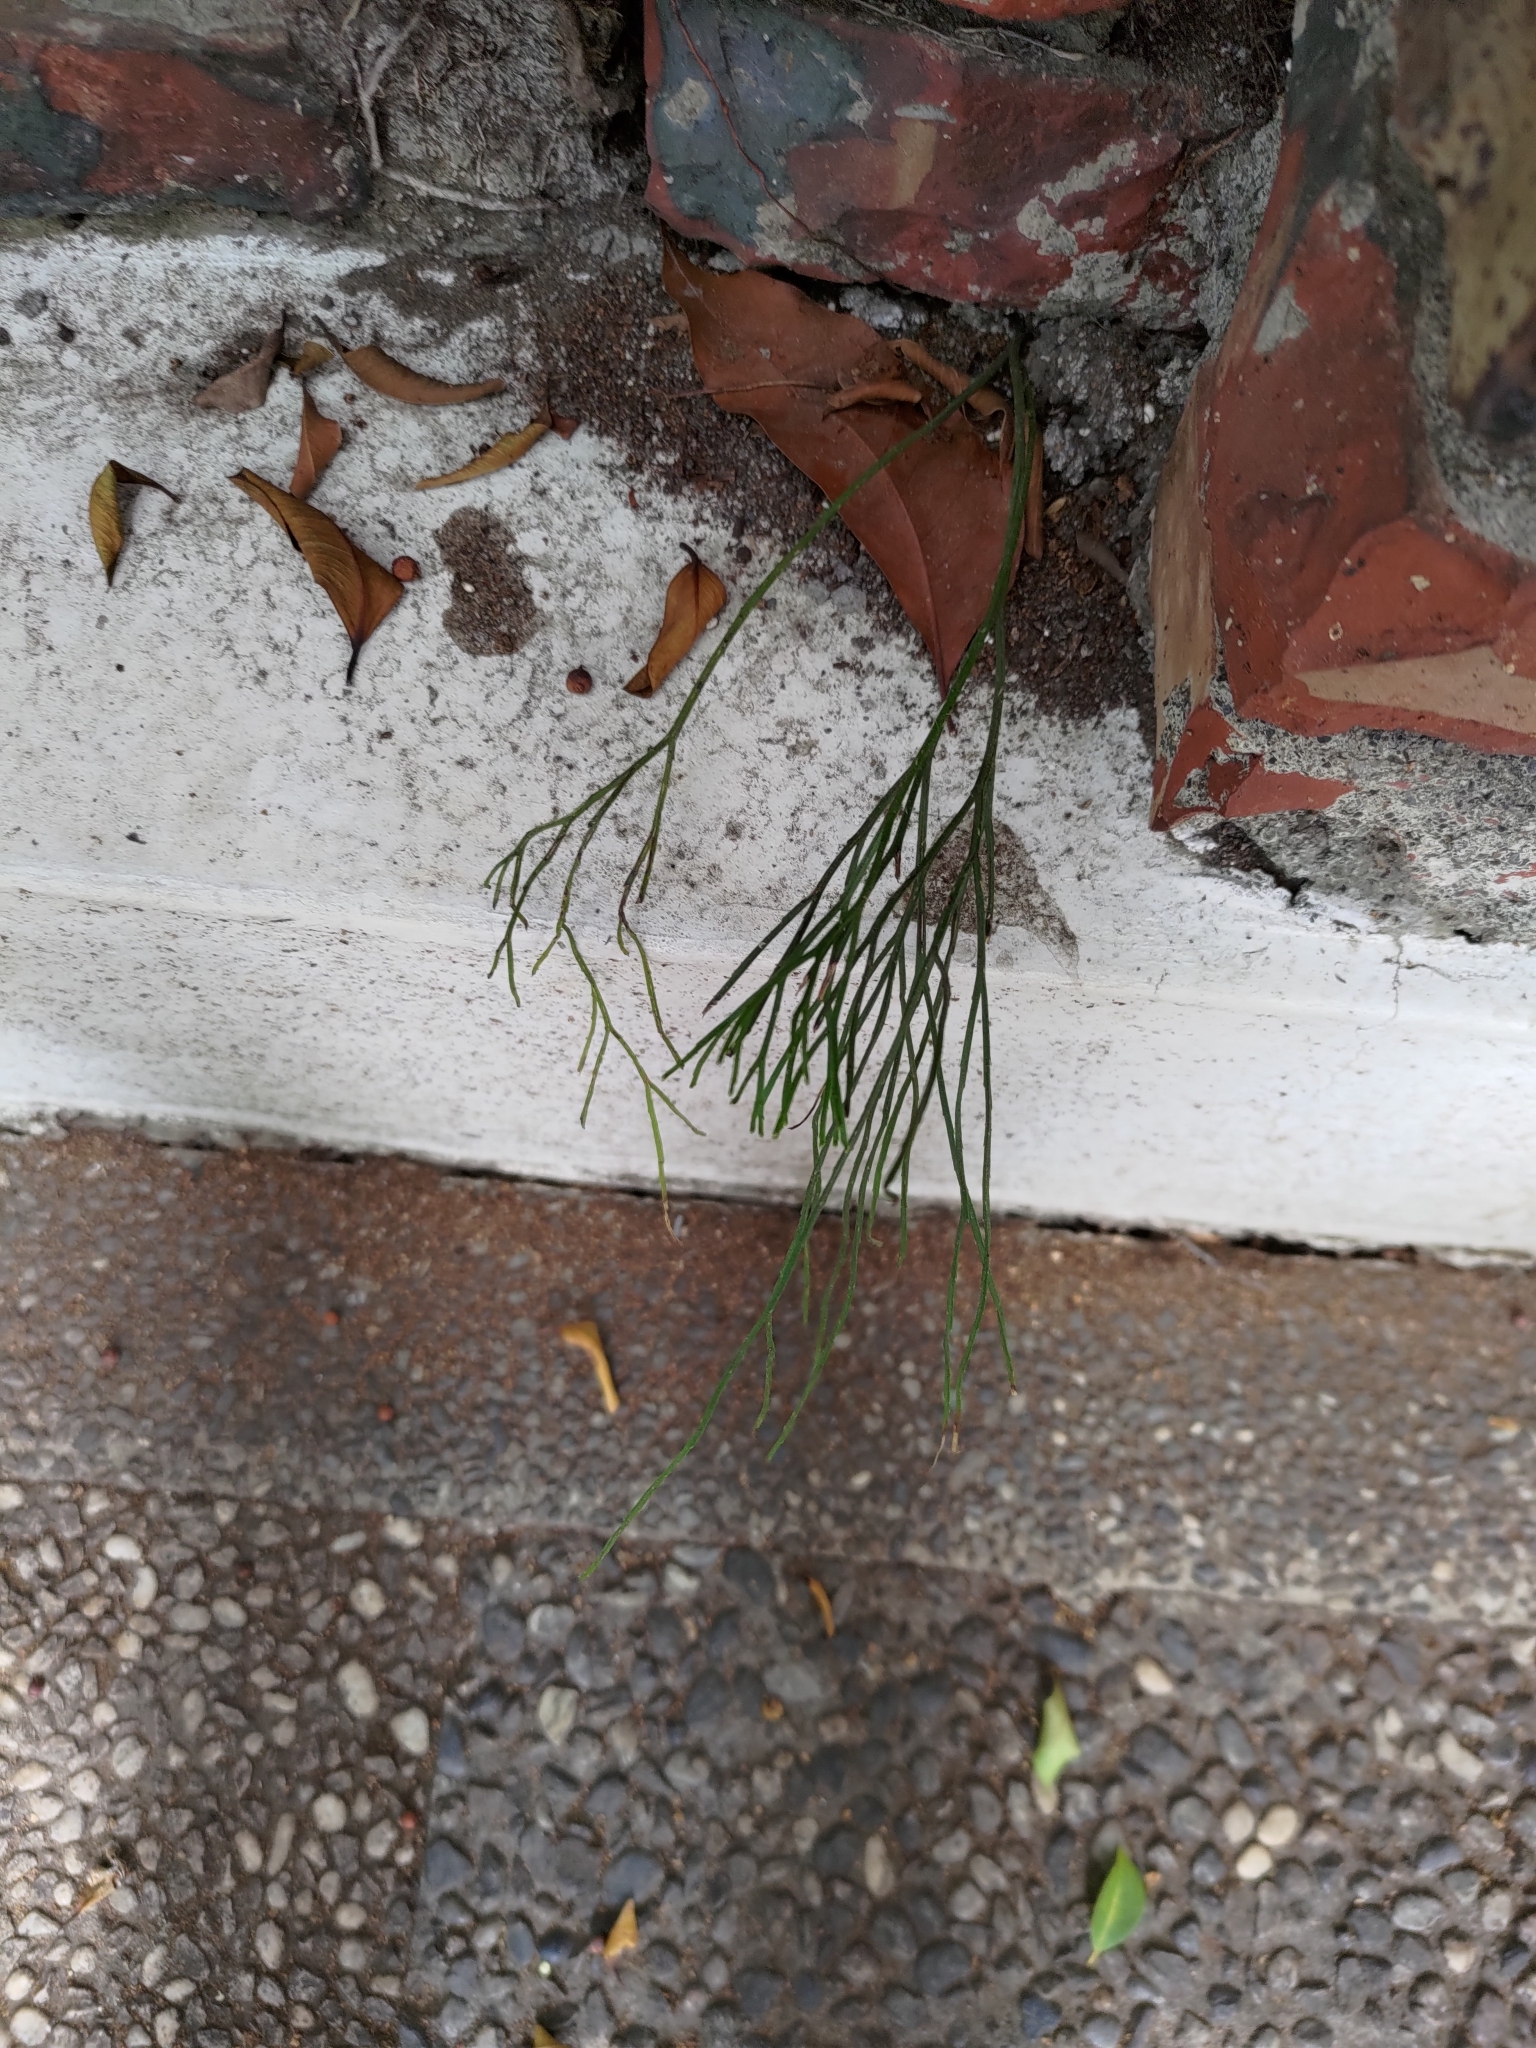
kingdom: Plantae
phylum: Tracheophyta
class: Polypodiopsida
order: Psilotales
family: Psilotaceae
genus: Psilotum
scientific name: Psilotum nudum
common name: Skeleton fork fern
